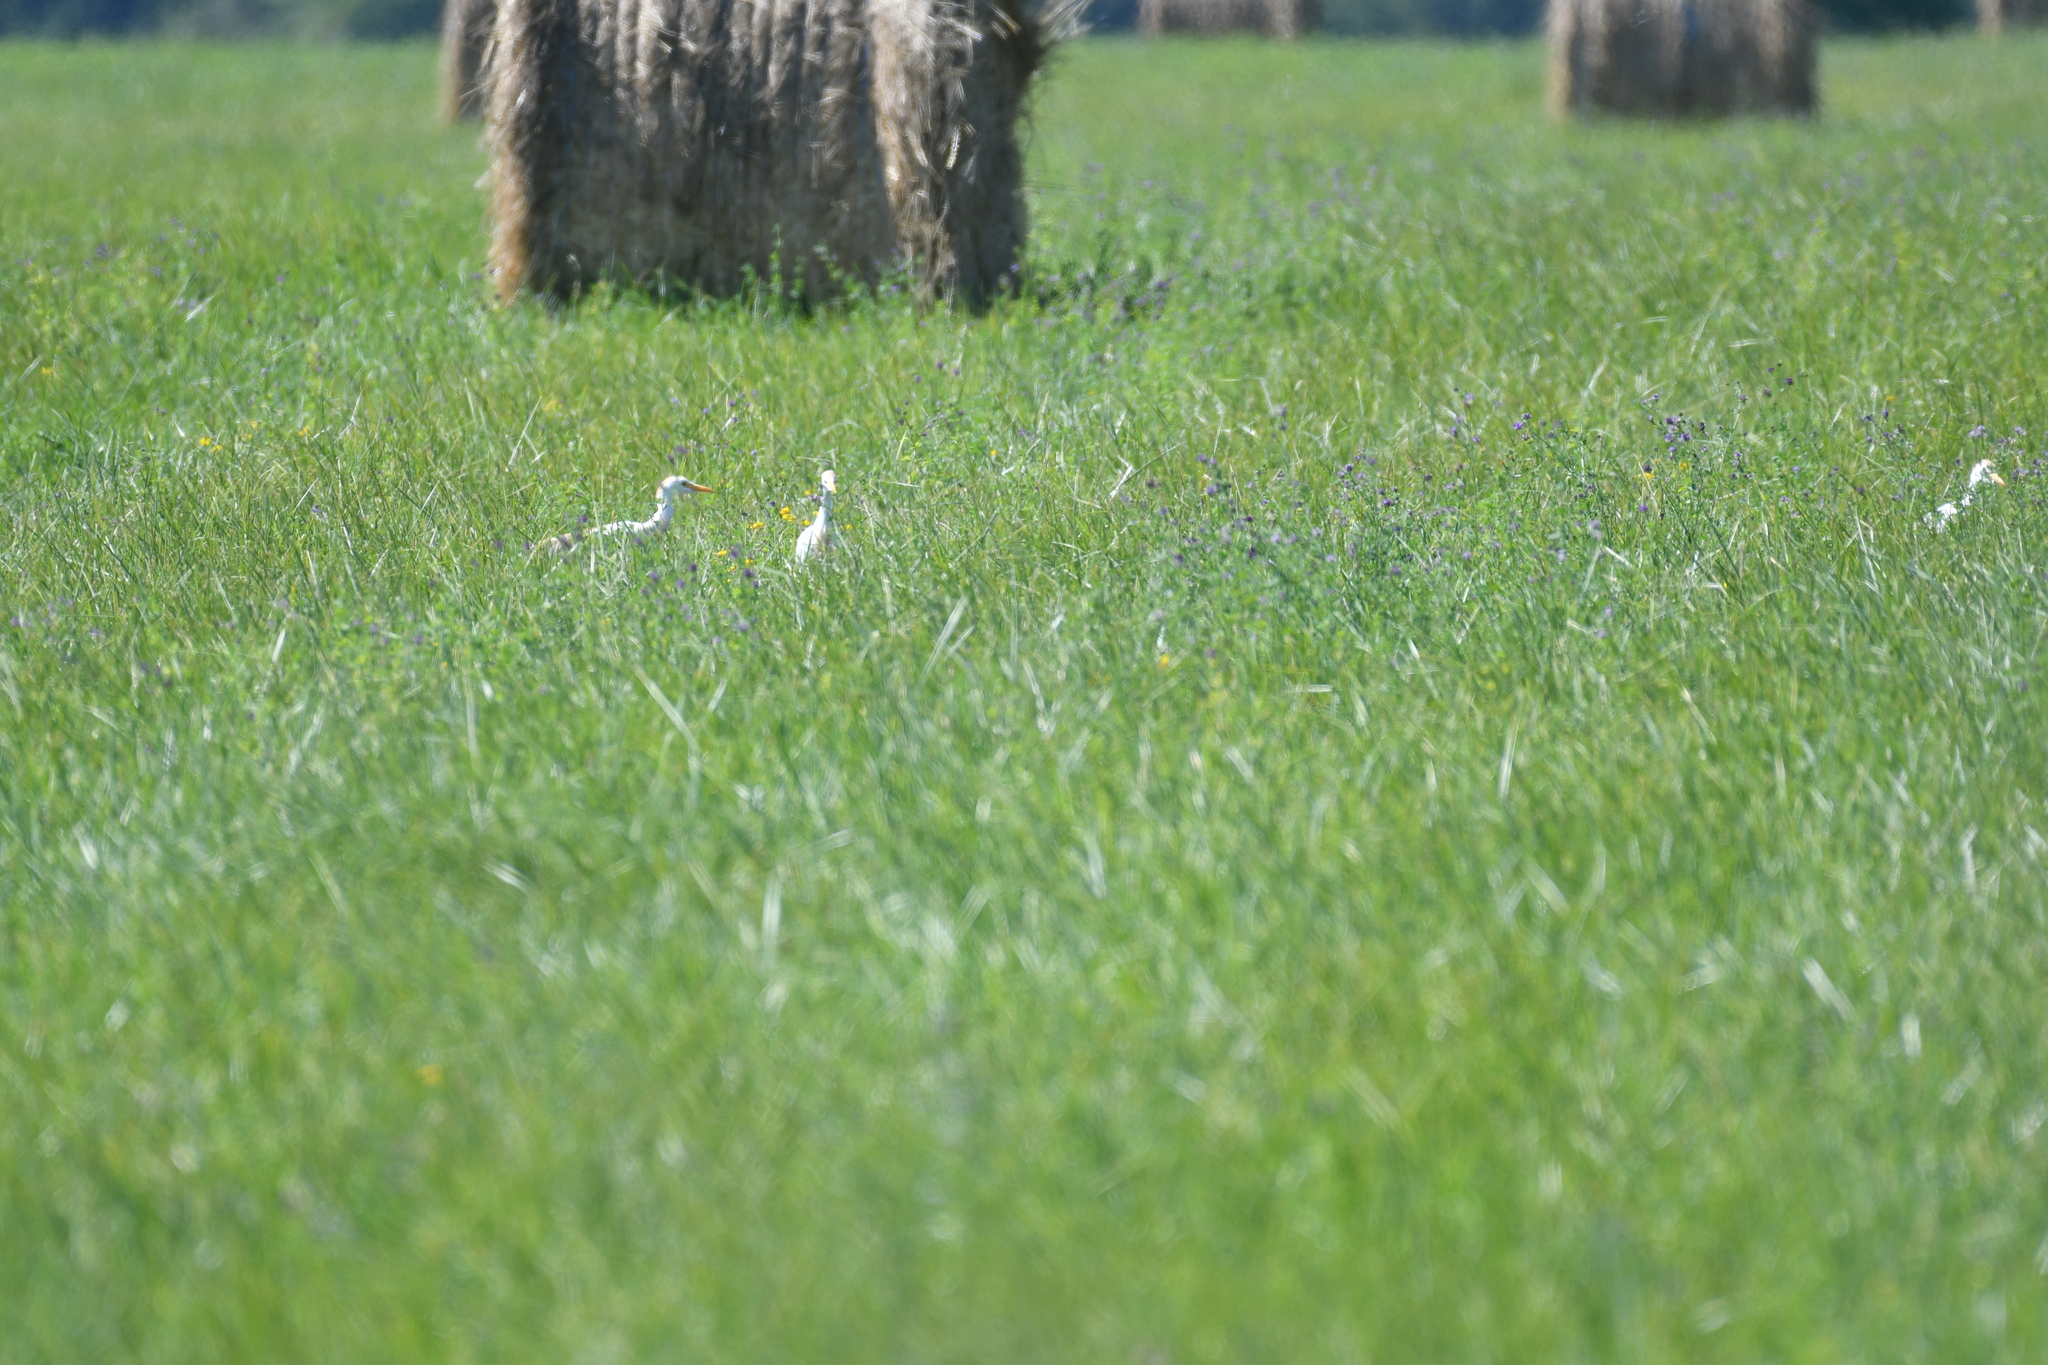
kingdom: Animalia
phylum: Chordata
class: Aves
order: Pelecaniformes
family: Ardeidae
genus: Bubulcus
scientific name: Bubulcus ibis
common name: Cattle egret
